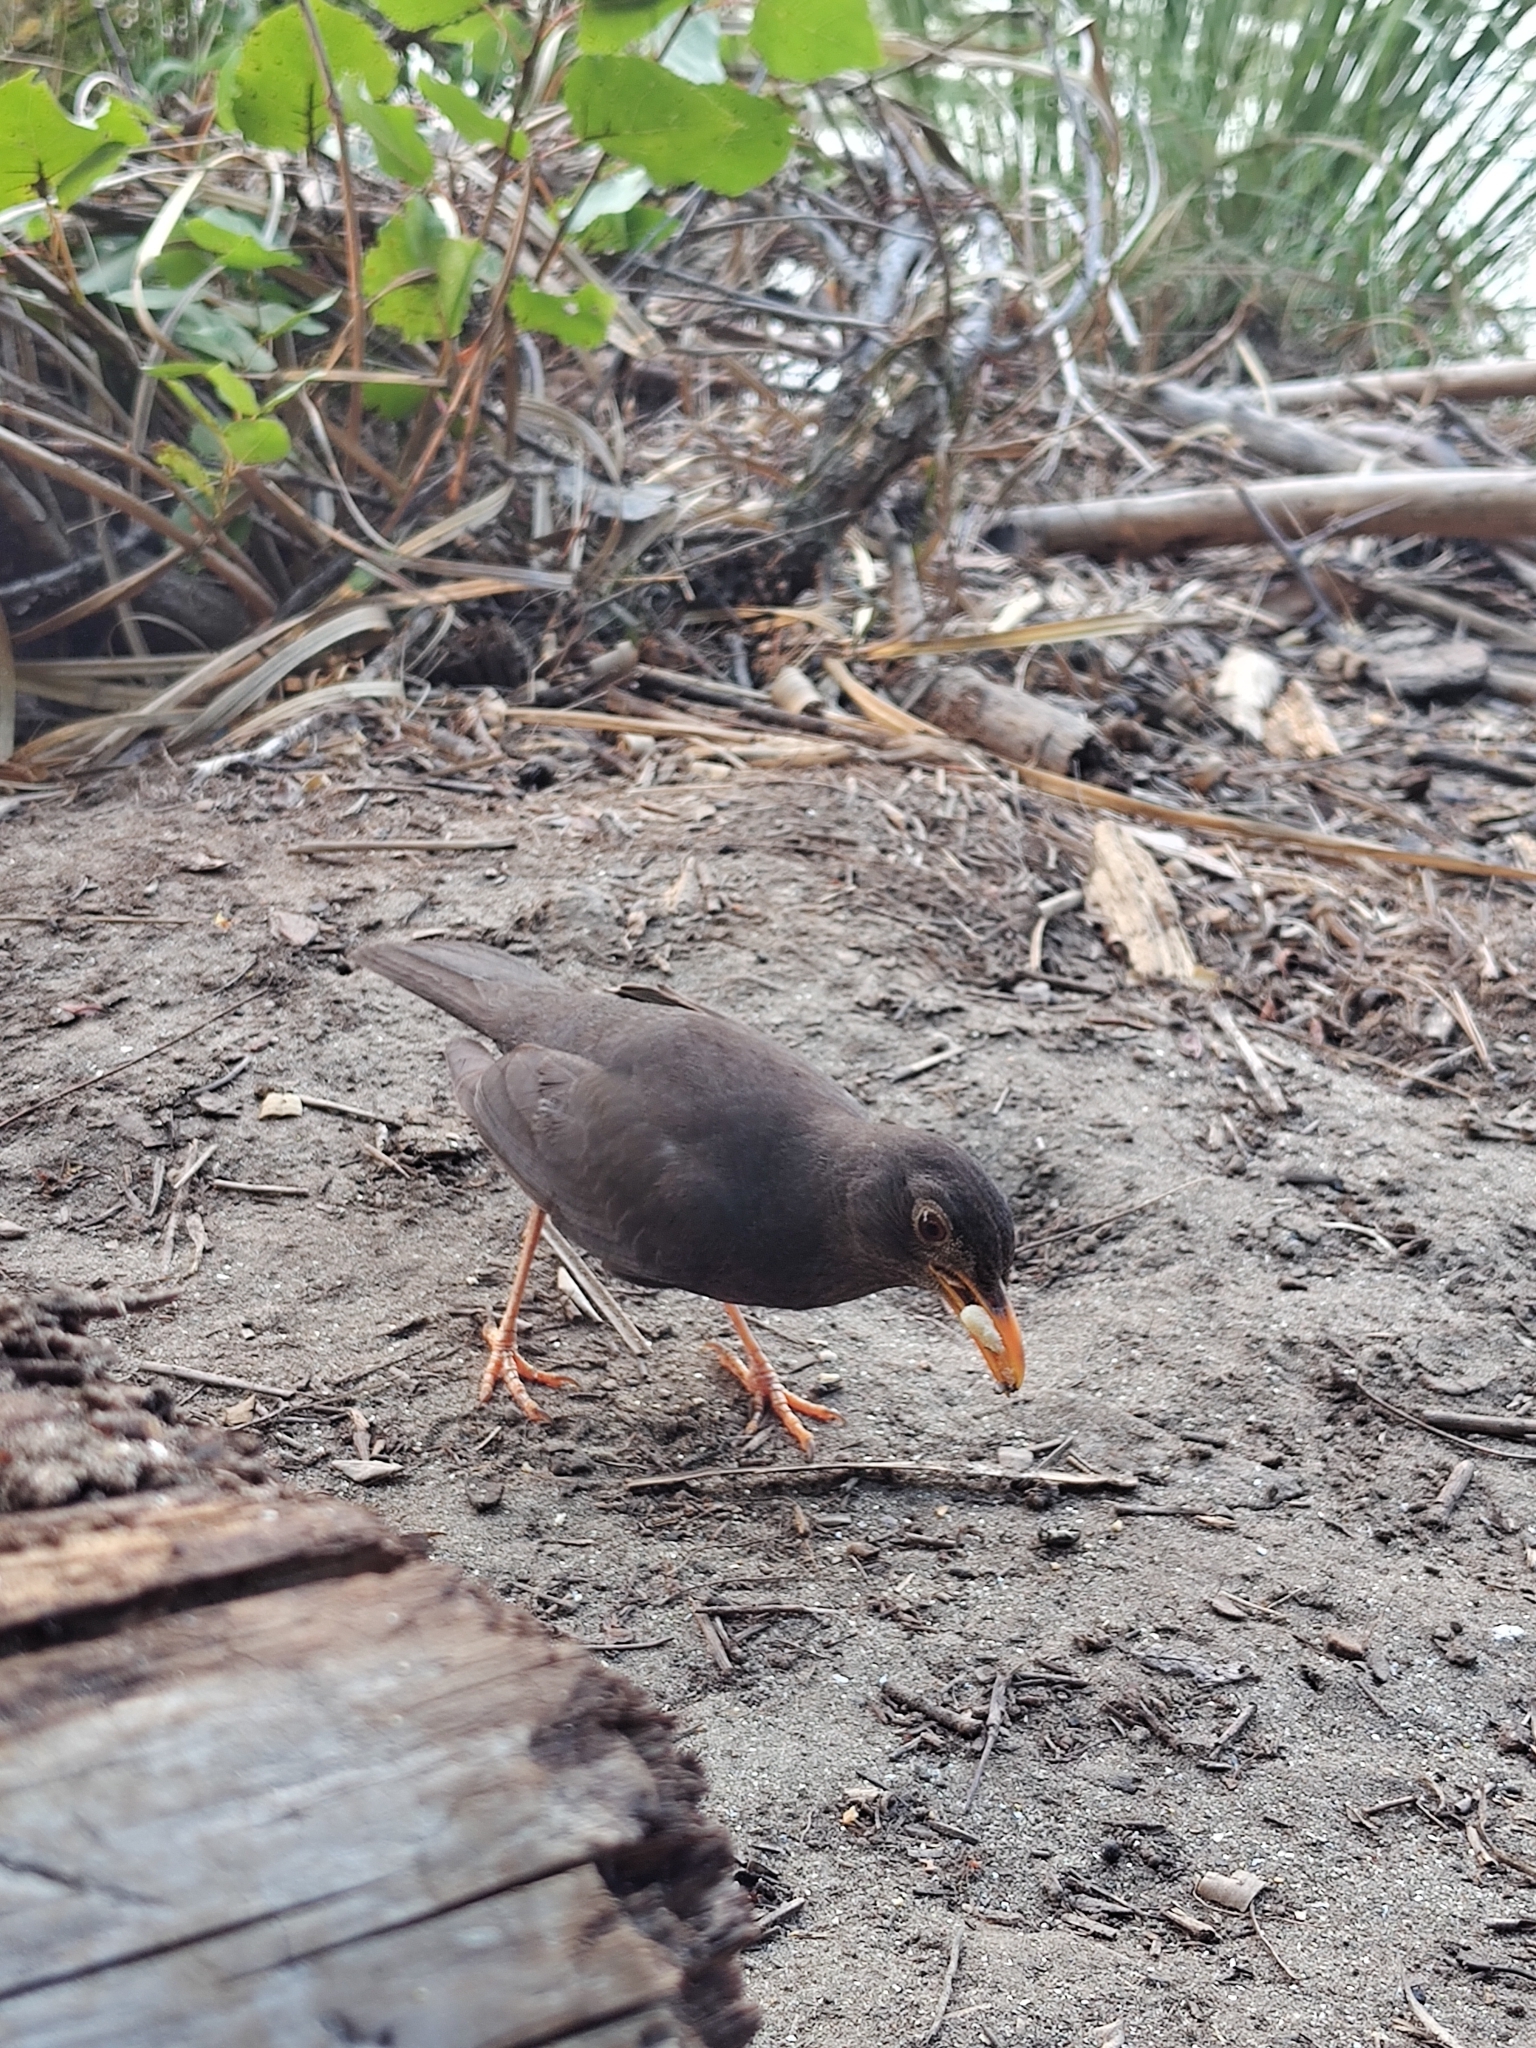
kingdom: Animalia
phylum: Chordata
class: Aves
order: Passeriformes
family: Turdidae
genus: Turdus
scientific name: Turdus chiguanco
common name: Chiguanco thrush
